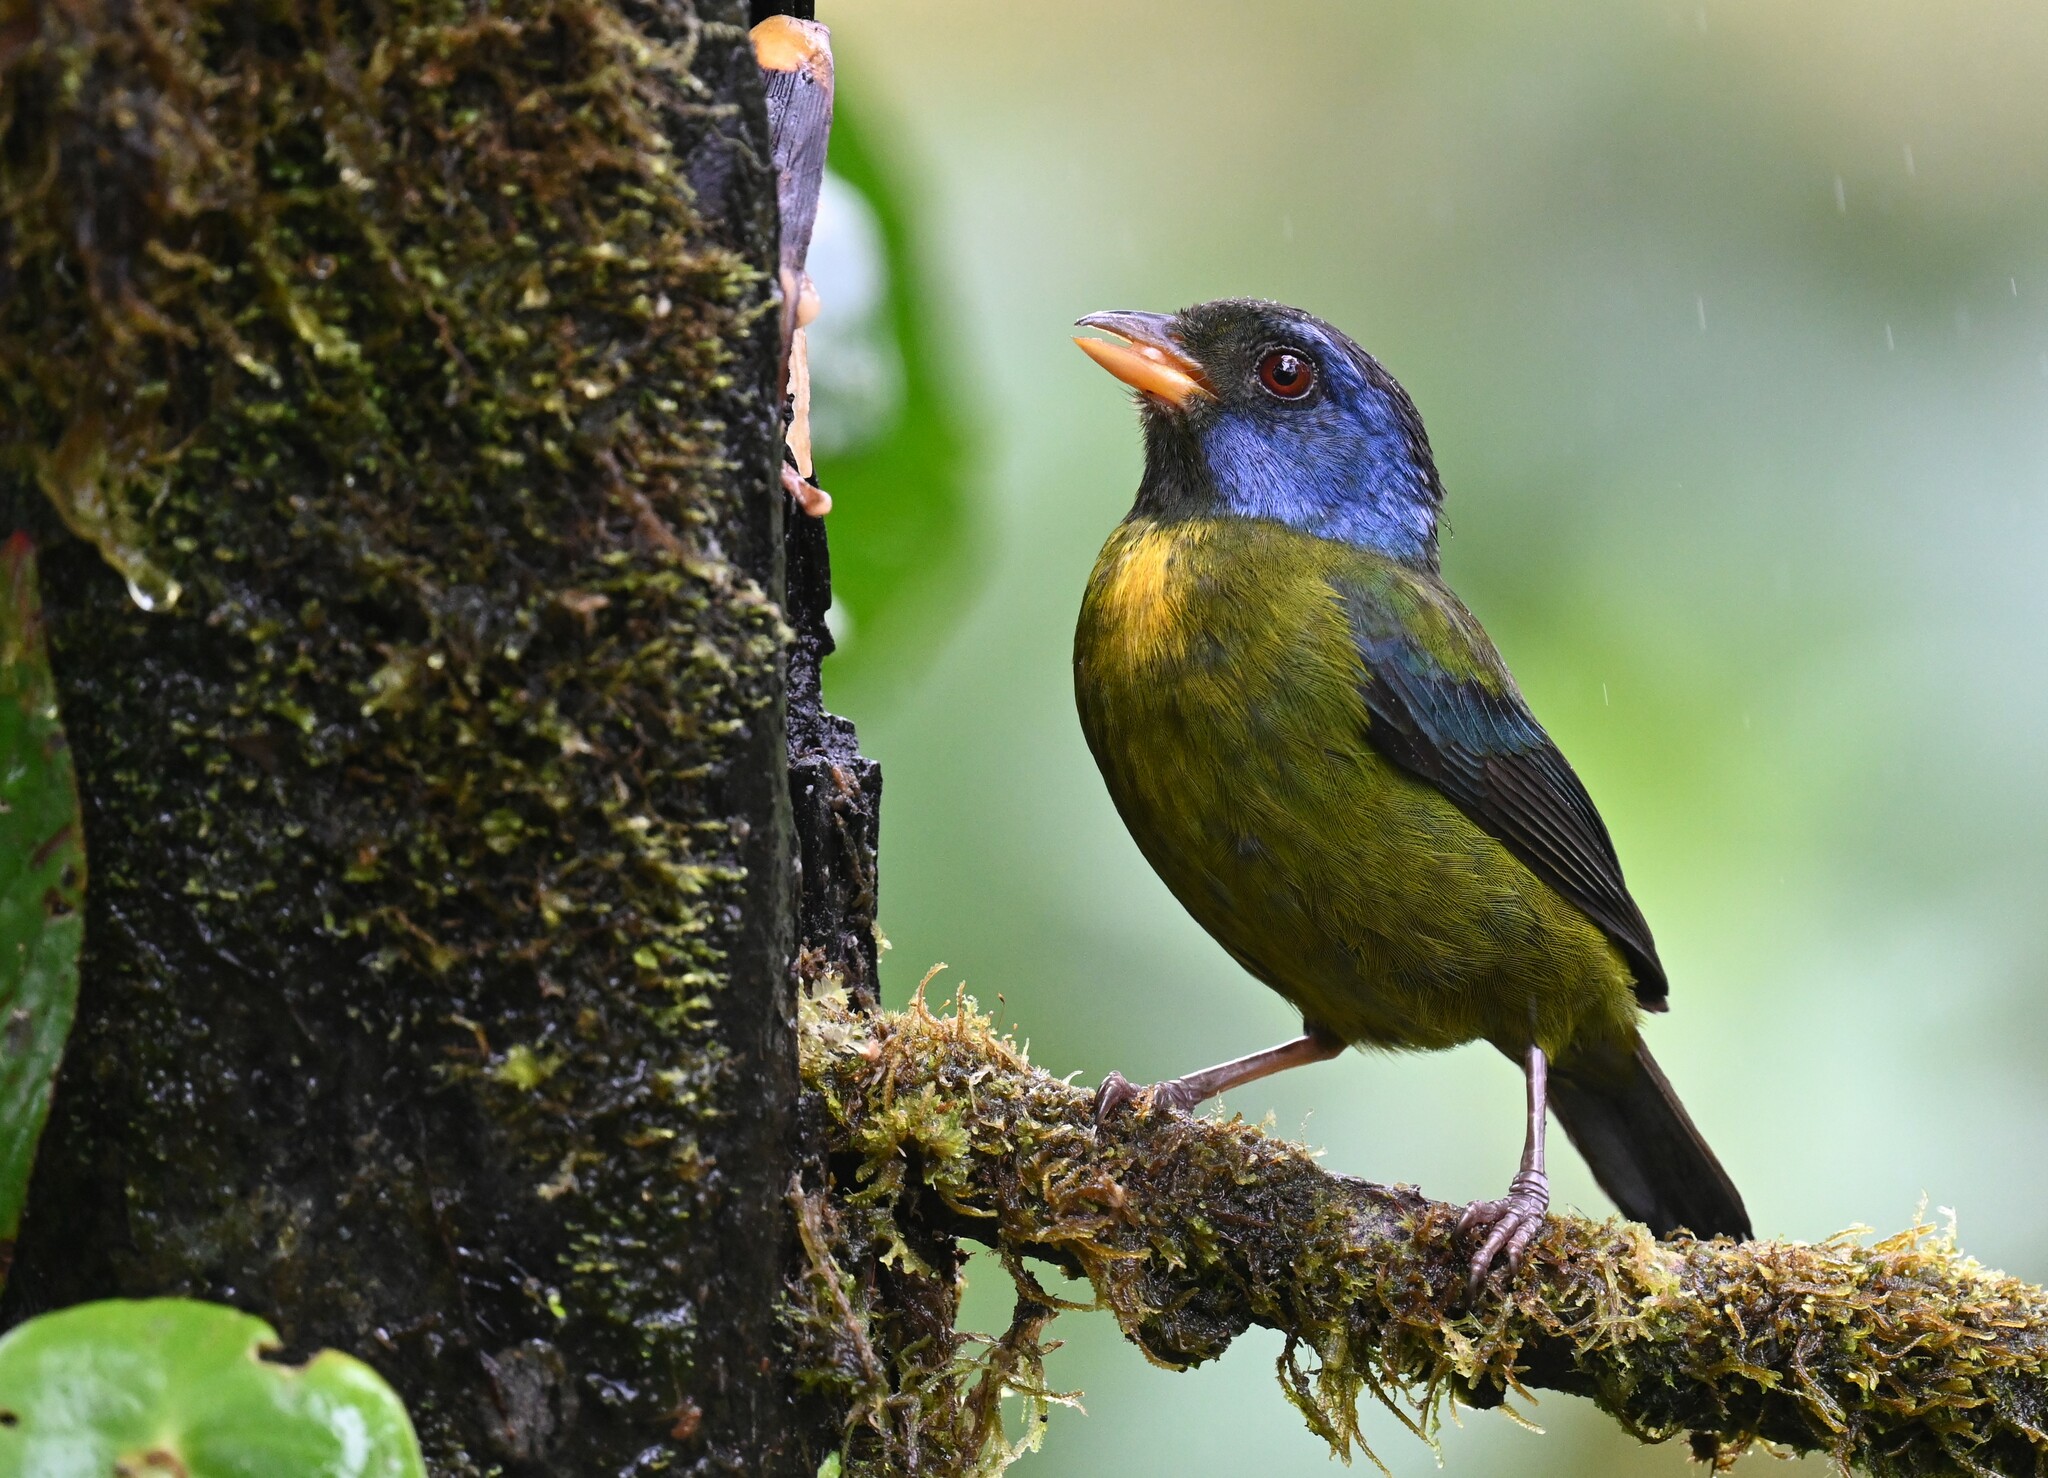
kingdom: Animalia
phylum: Chordata
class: Aves
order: Passeriformes
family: Thraupidae
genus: Bangsia
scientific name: Bangsia edwardsi
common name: Moss-backed tanager
